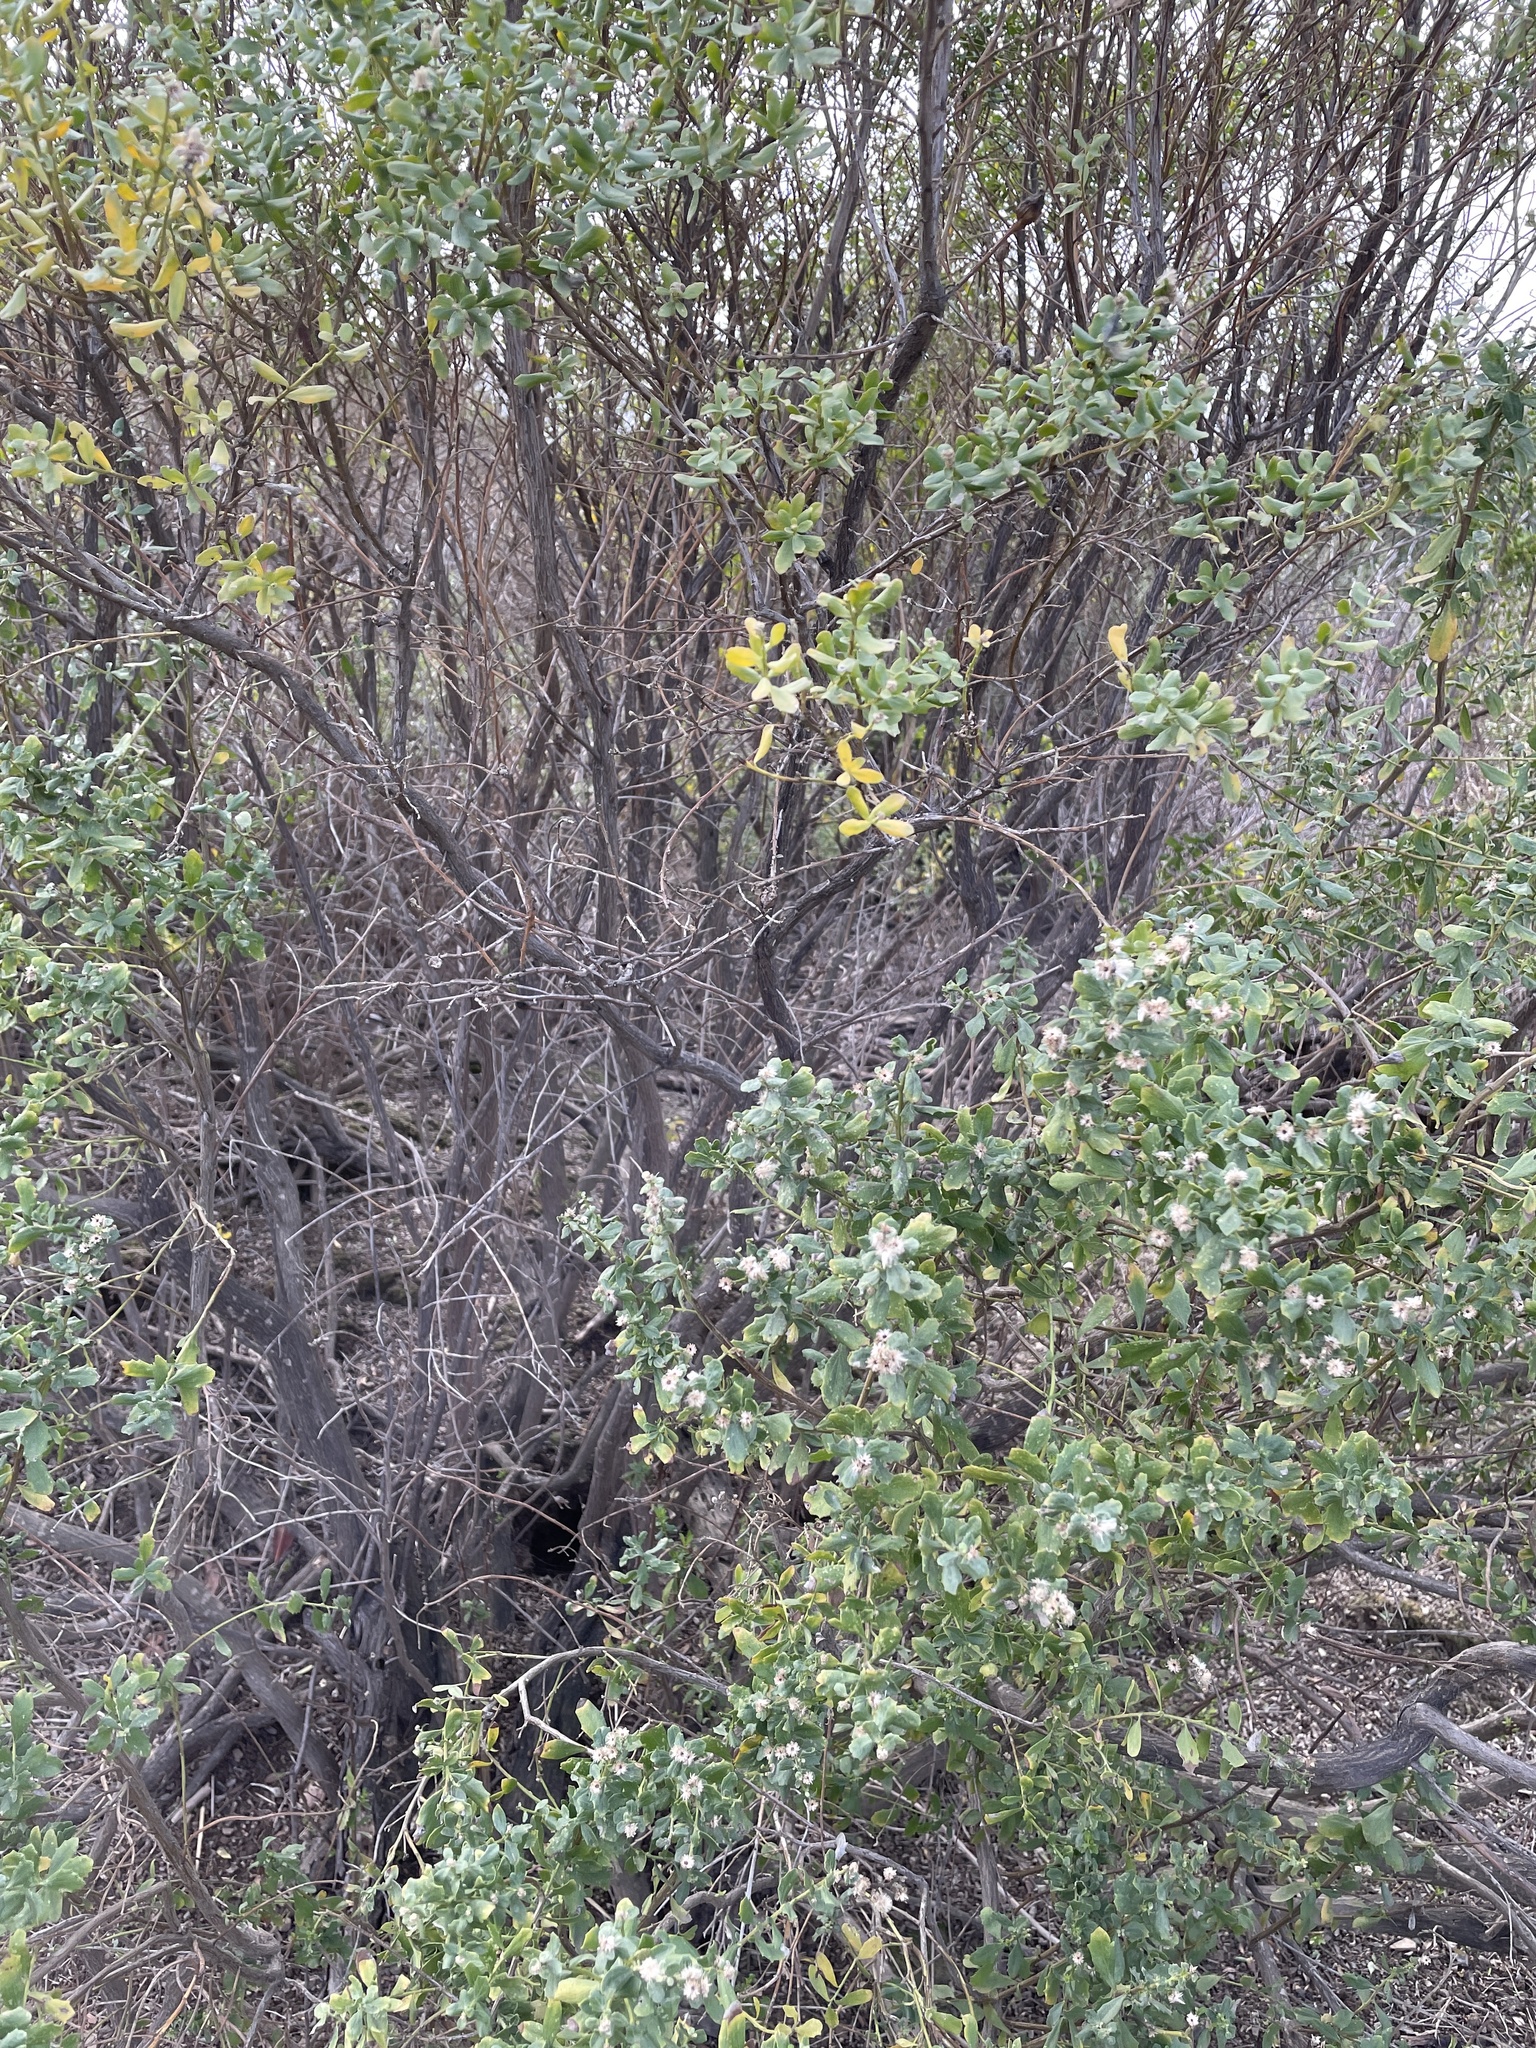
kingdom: Plantae
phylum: Tracheophyta
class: Magnoliopsida
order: Asterales
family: Asteraceae
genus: Baccharis
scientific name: Baccharis pilularis
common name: Coyotebrush
